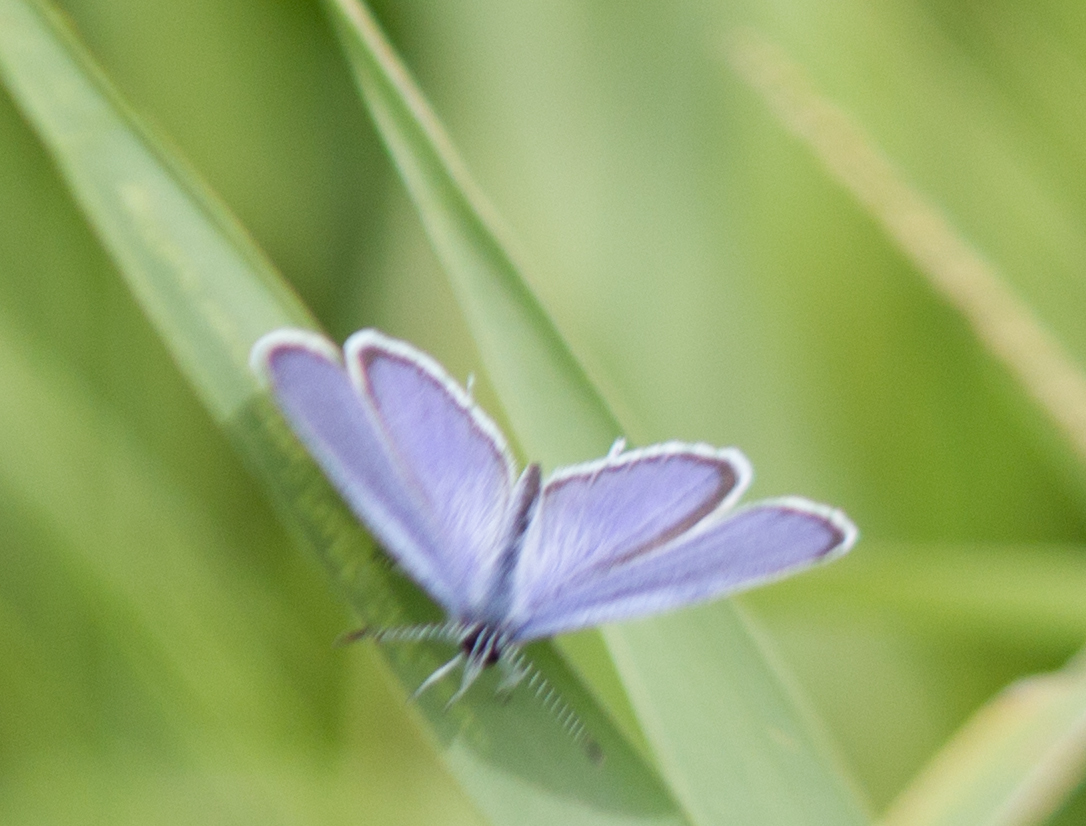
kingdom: Animalia
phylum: Arthropoda
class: Insecta
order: Lepidoptera
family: Lycaenidae
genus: Elkalyce
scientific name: Elkalyce argiades
